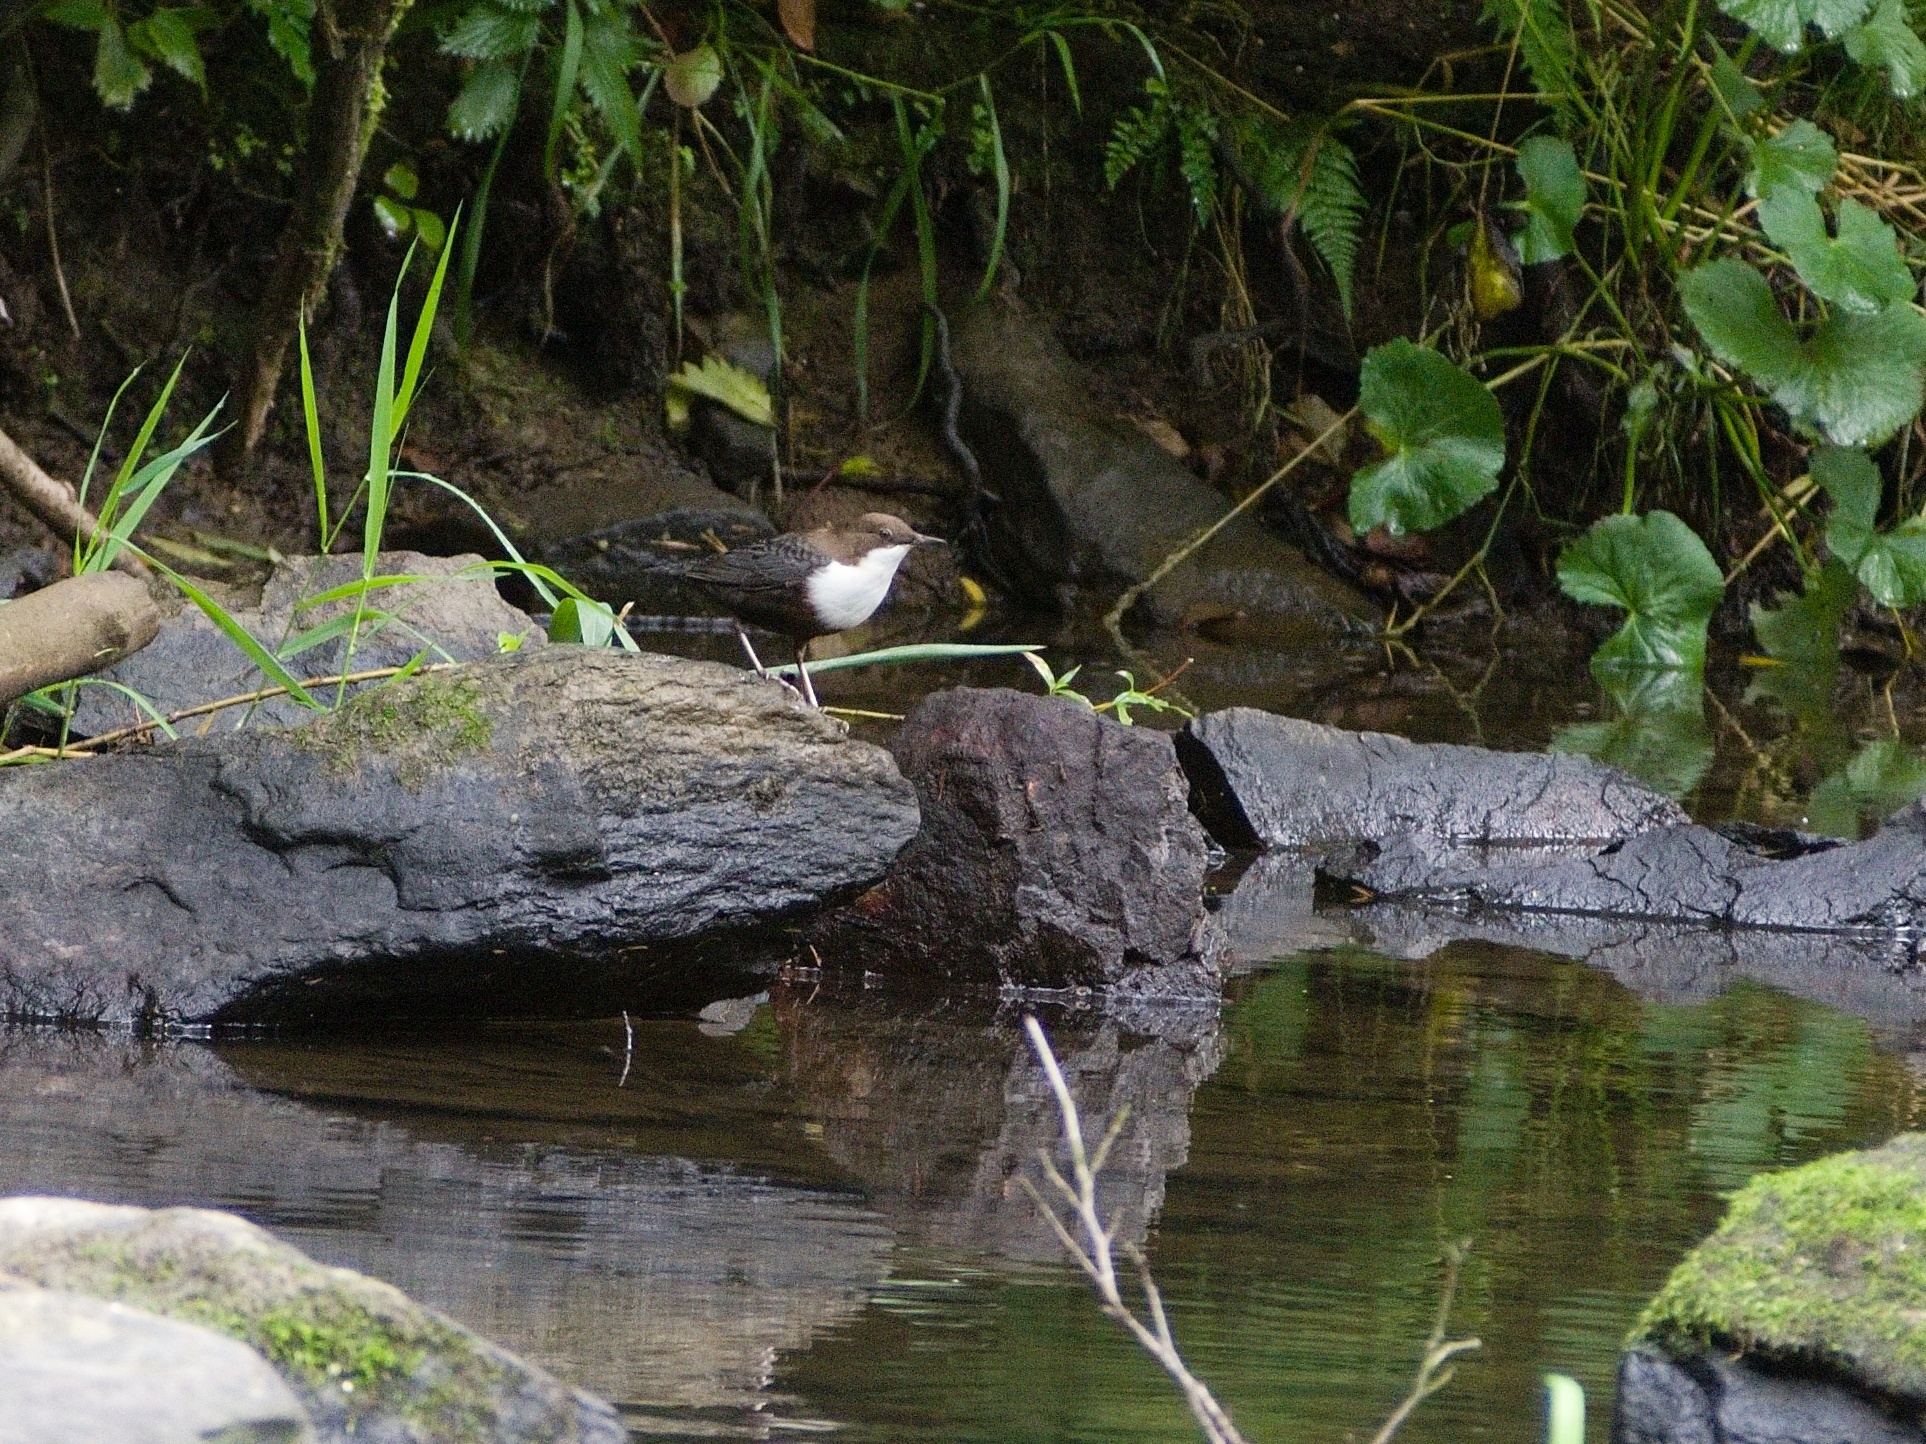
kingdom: Animalia
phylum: Chordata
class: Aves
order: Passeriformes
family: Cinclidae
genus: Cinclus
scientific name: Cinclus cinclus
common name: White-throated dipper
